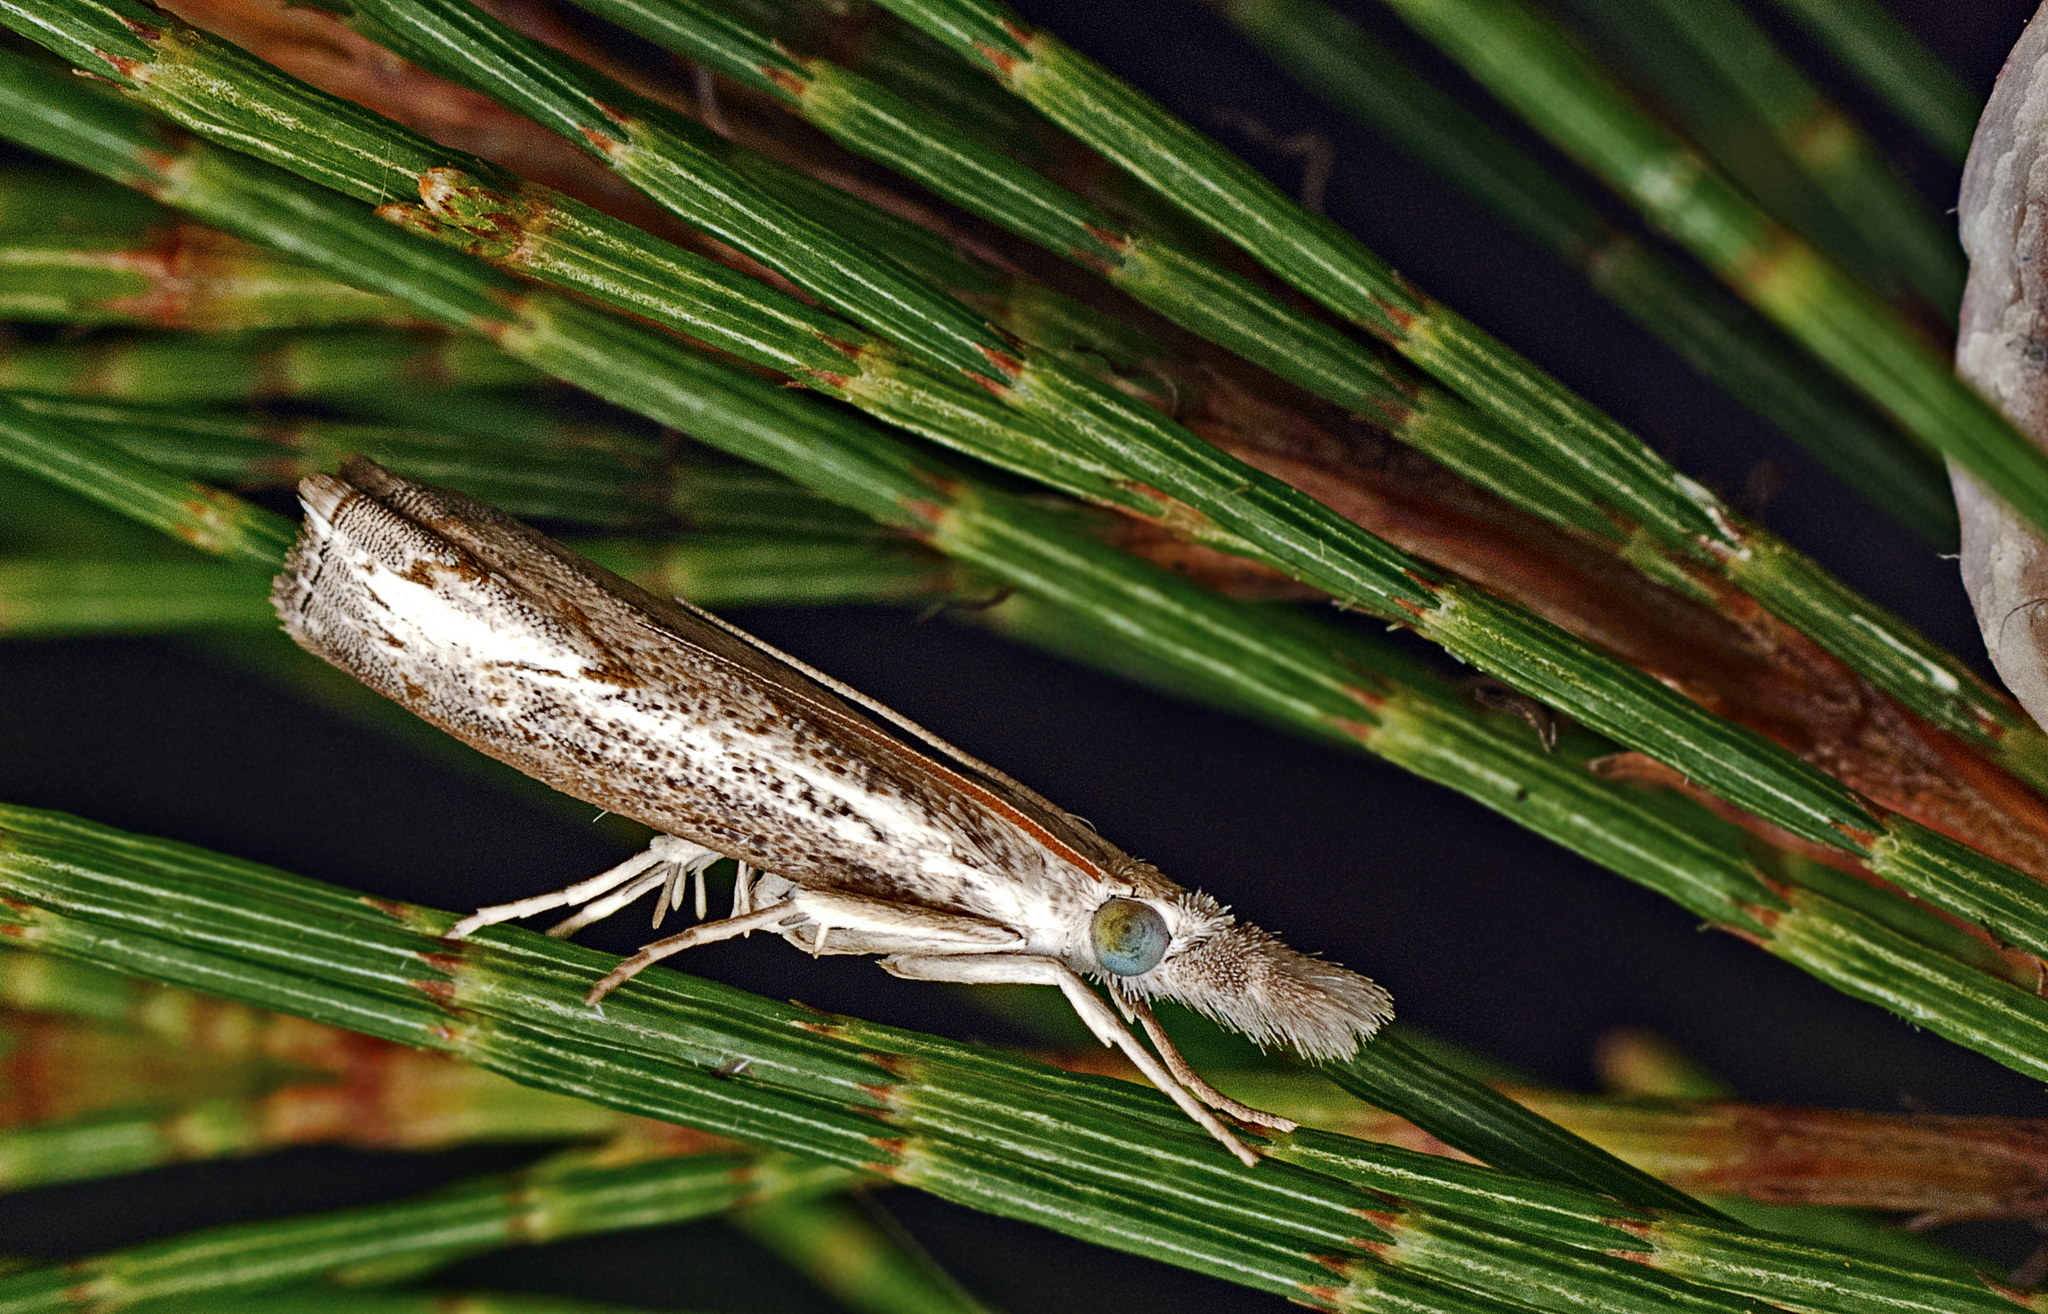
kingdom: Animalia
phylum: Arthropoda
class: Insecta
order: Lepidoptera
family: Crambidae
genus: Culladia
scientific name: Culladia cuneiferellus
